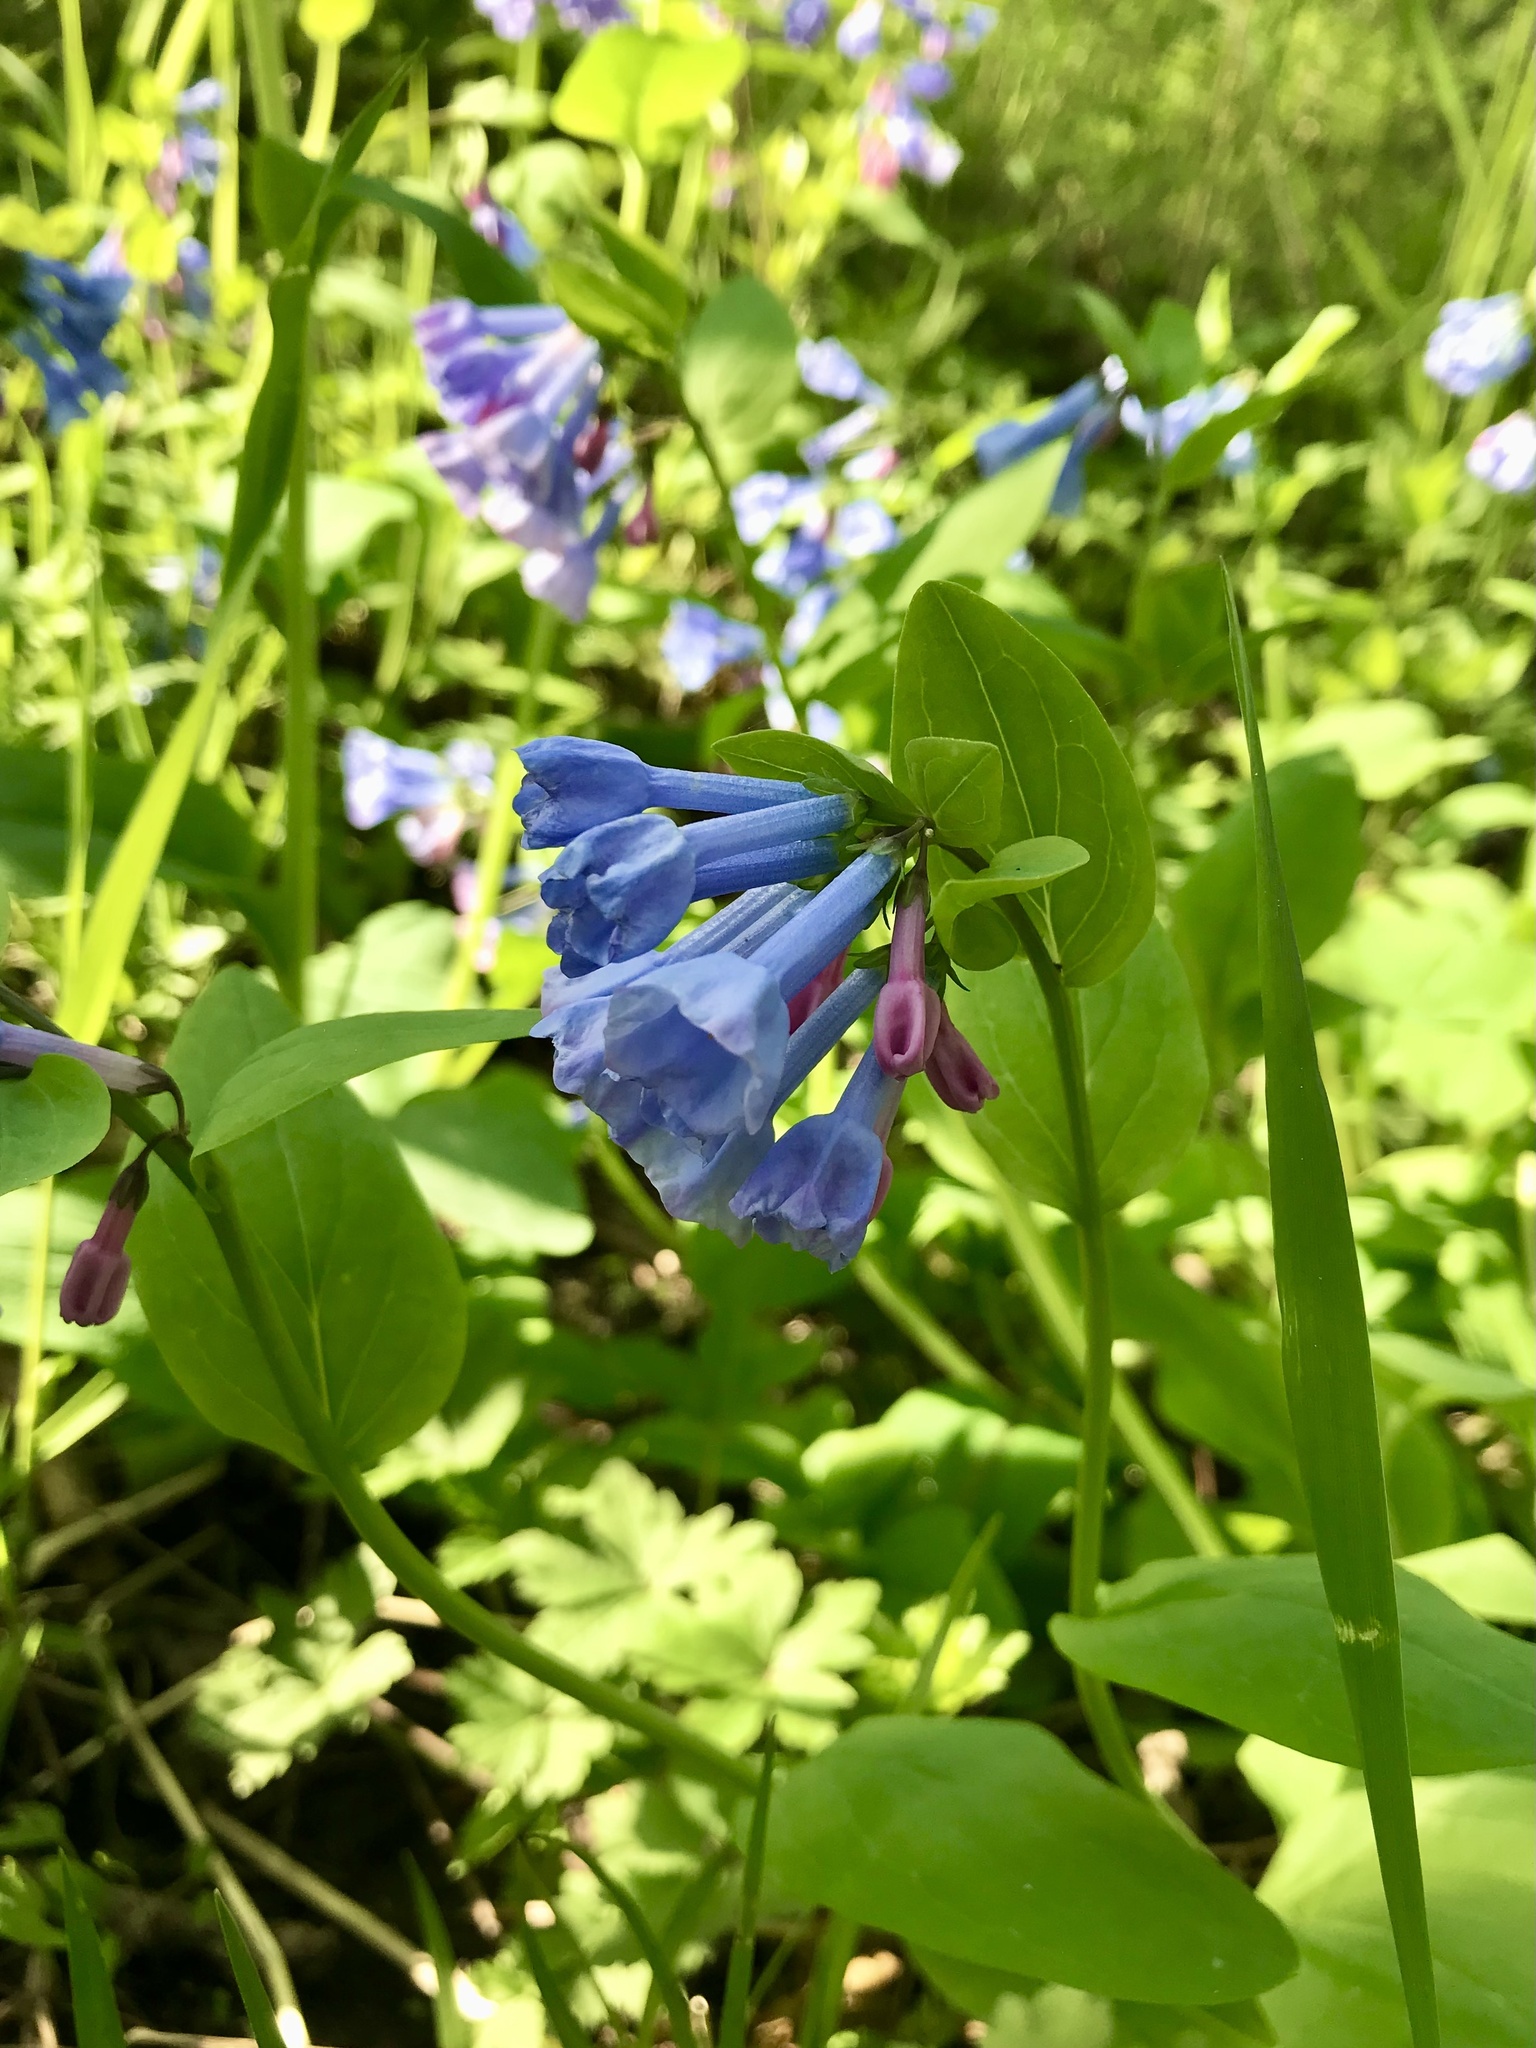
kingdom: Plantae
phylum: Tracheophyta
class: Magnoliopsida
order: Boraginales
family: Boraginaceae
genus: Mertensia
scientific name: Mertensia virginica
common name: Virginia bluebells
